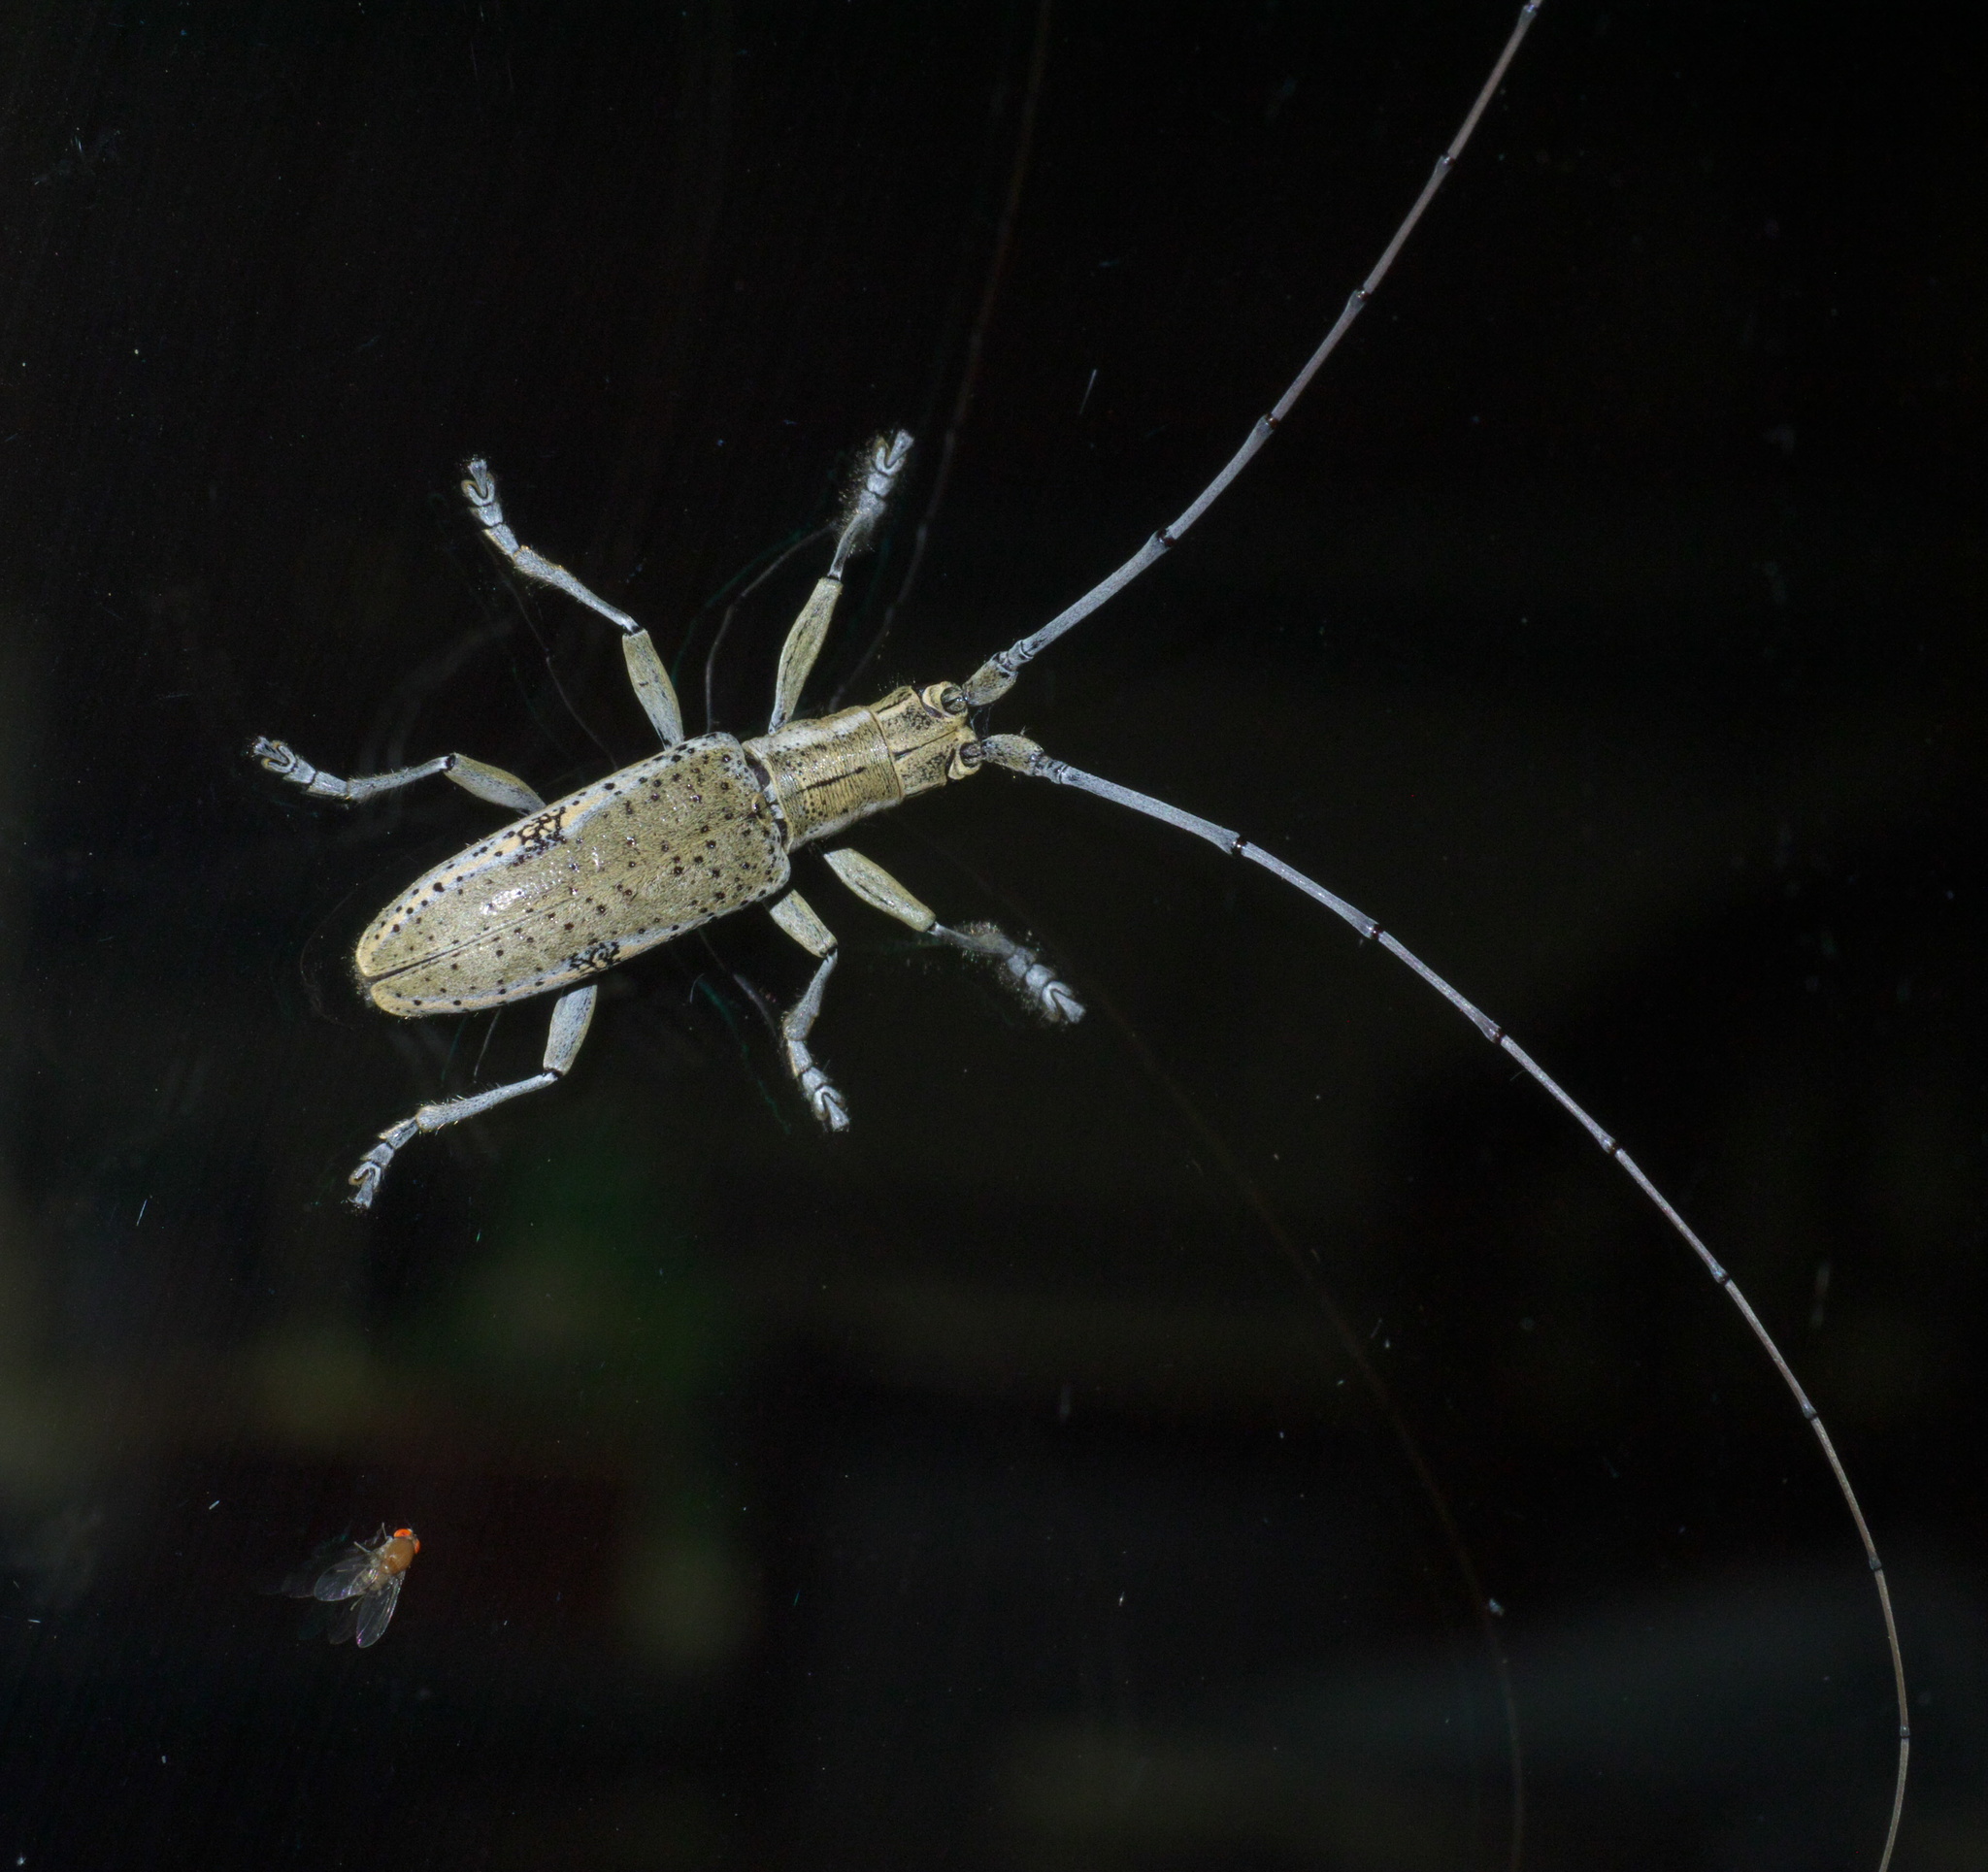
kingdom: Animalia
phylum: Arthropoda
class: Insecta
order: Coleoptera
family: Cerambycidae
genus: Dorcaschema
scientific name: Dorcaschema wildii
